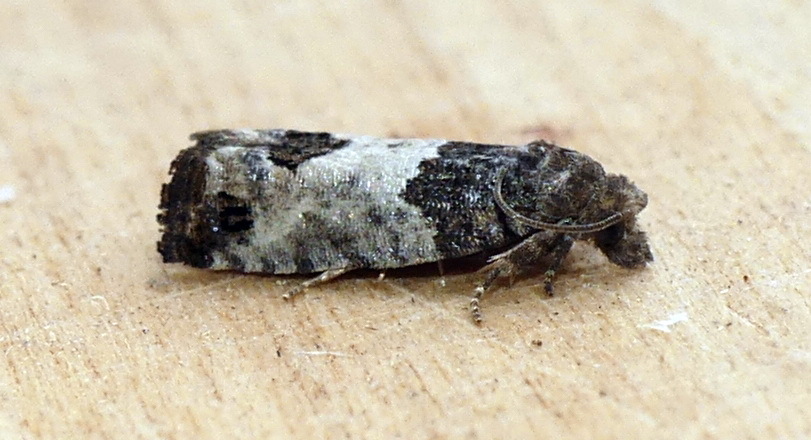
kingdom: Animalia
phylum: Arthropoda
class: Insecta
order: Lepidoptera
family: Tortricidae
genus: Spilonota
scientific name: Spilonota ocellana
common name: Bud moth
